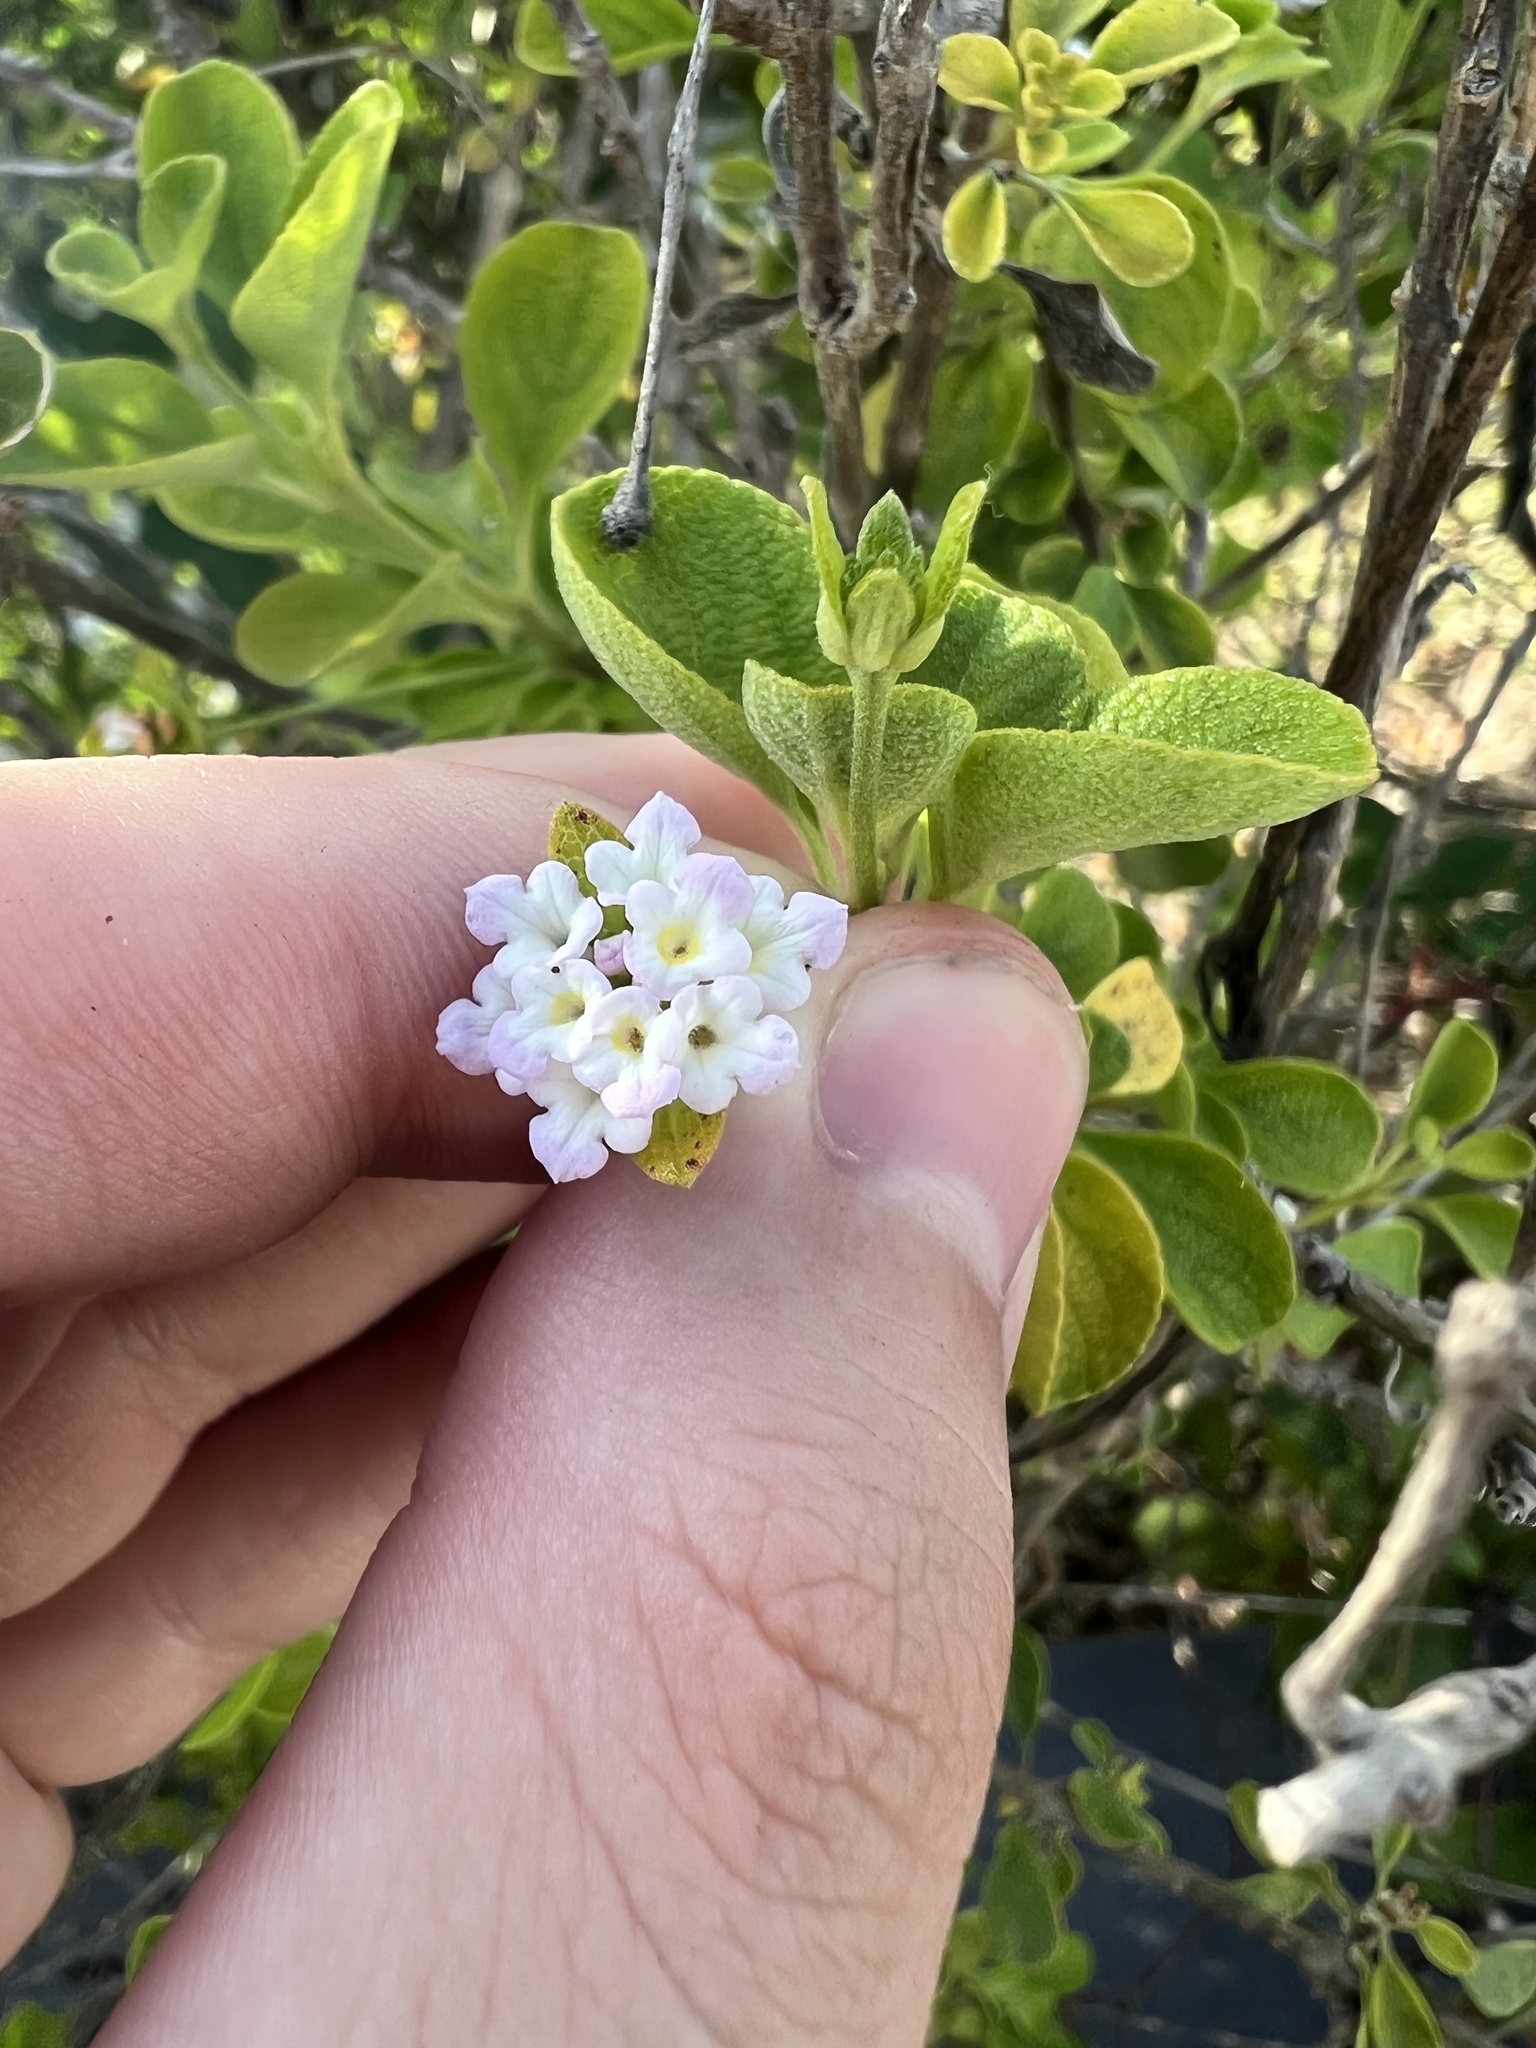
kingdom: Plantae
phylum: Tracheophyta
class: Magnoliopsida
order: Lamiales
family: Verbenaceae
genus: Lantana
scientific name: Lantana involucrata
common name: Black sage
